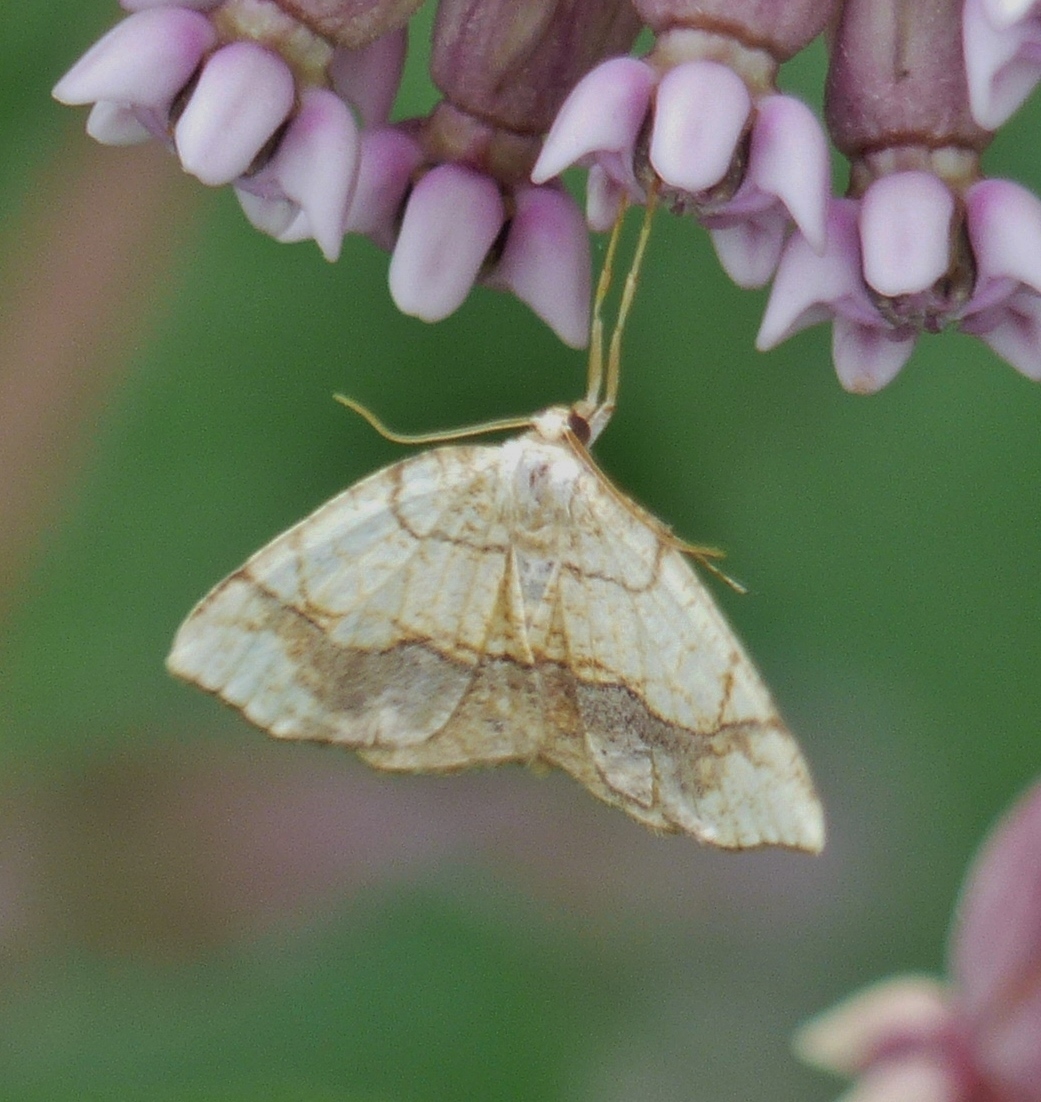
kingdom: Animalia
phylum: Arthropoda
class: Insecta
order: Lepidoptera
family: Geometridae
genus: Nematocampa
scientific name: Nematocampa resistaria
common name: Horned spanworm moth
